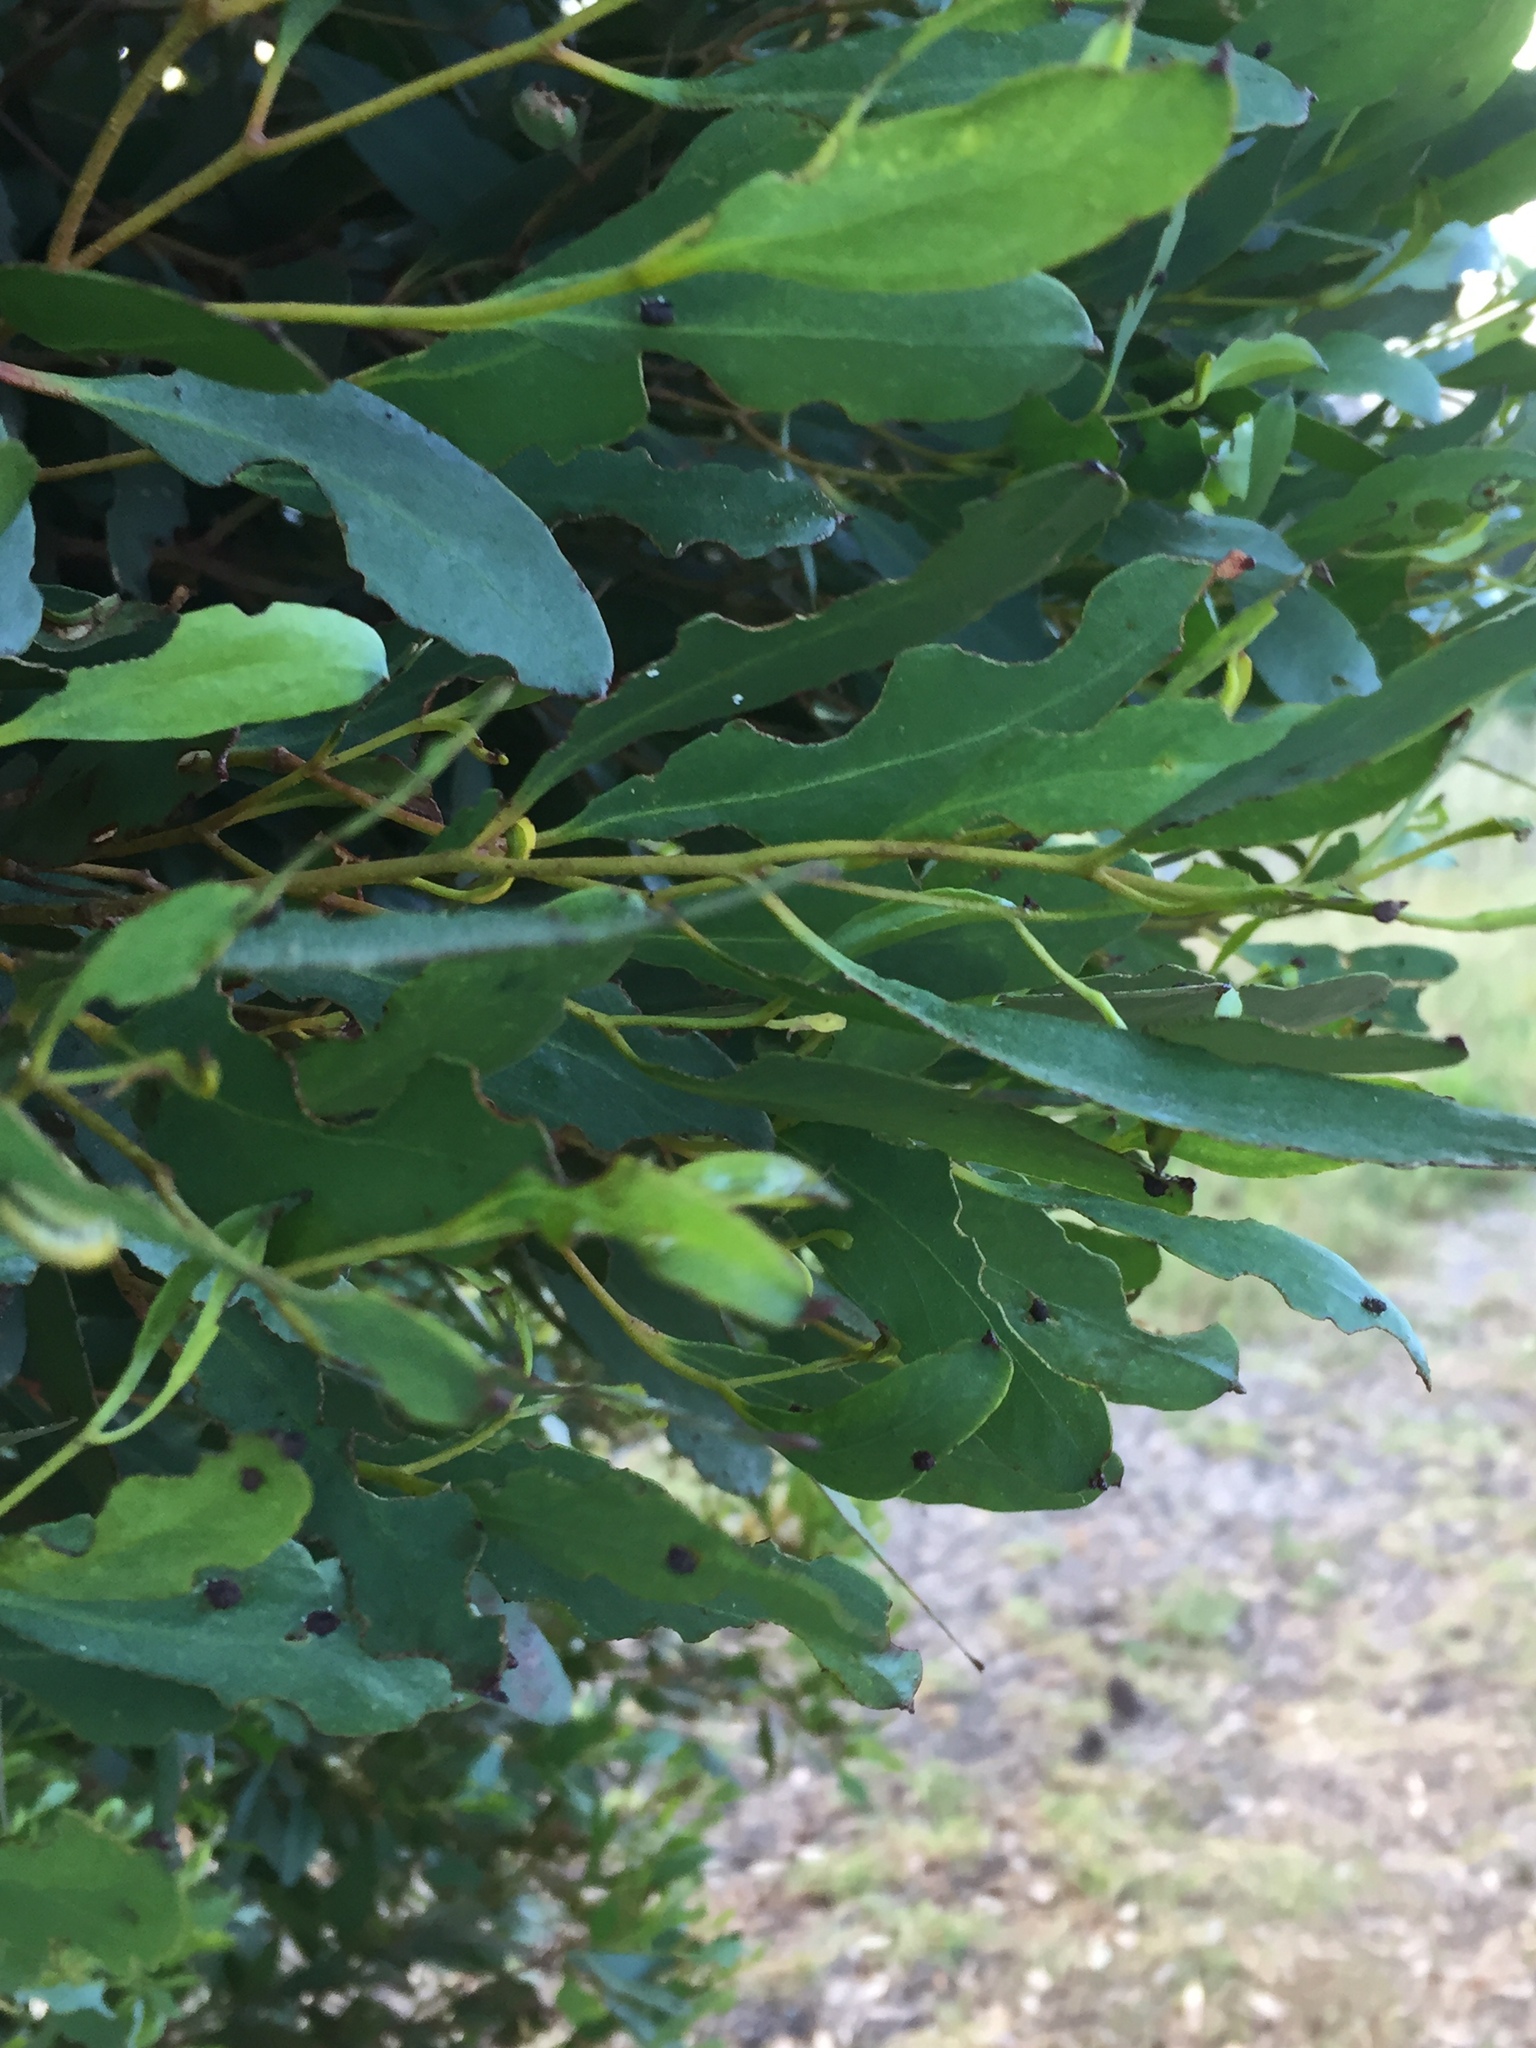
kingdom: Animalia
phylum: Arthropoda
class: Insecta
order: Coleoptera
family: Curculionidae
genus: Gonipterus
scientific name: Gonipterus
